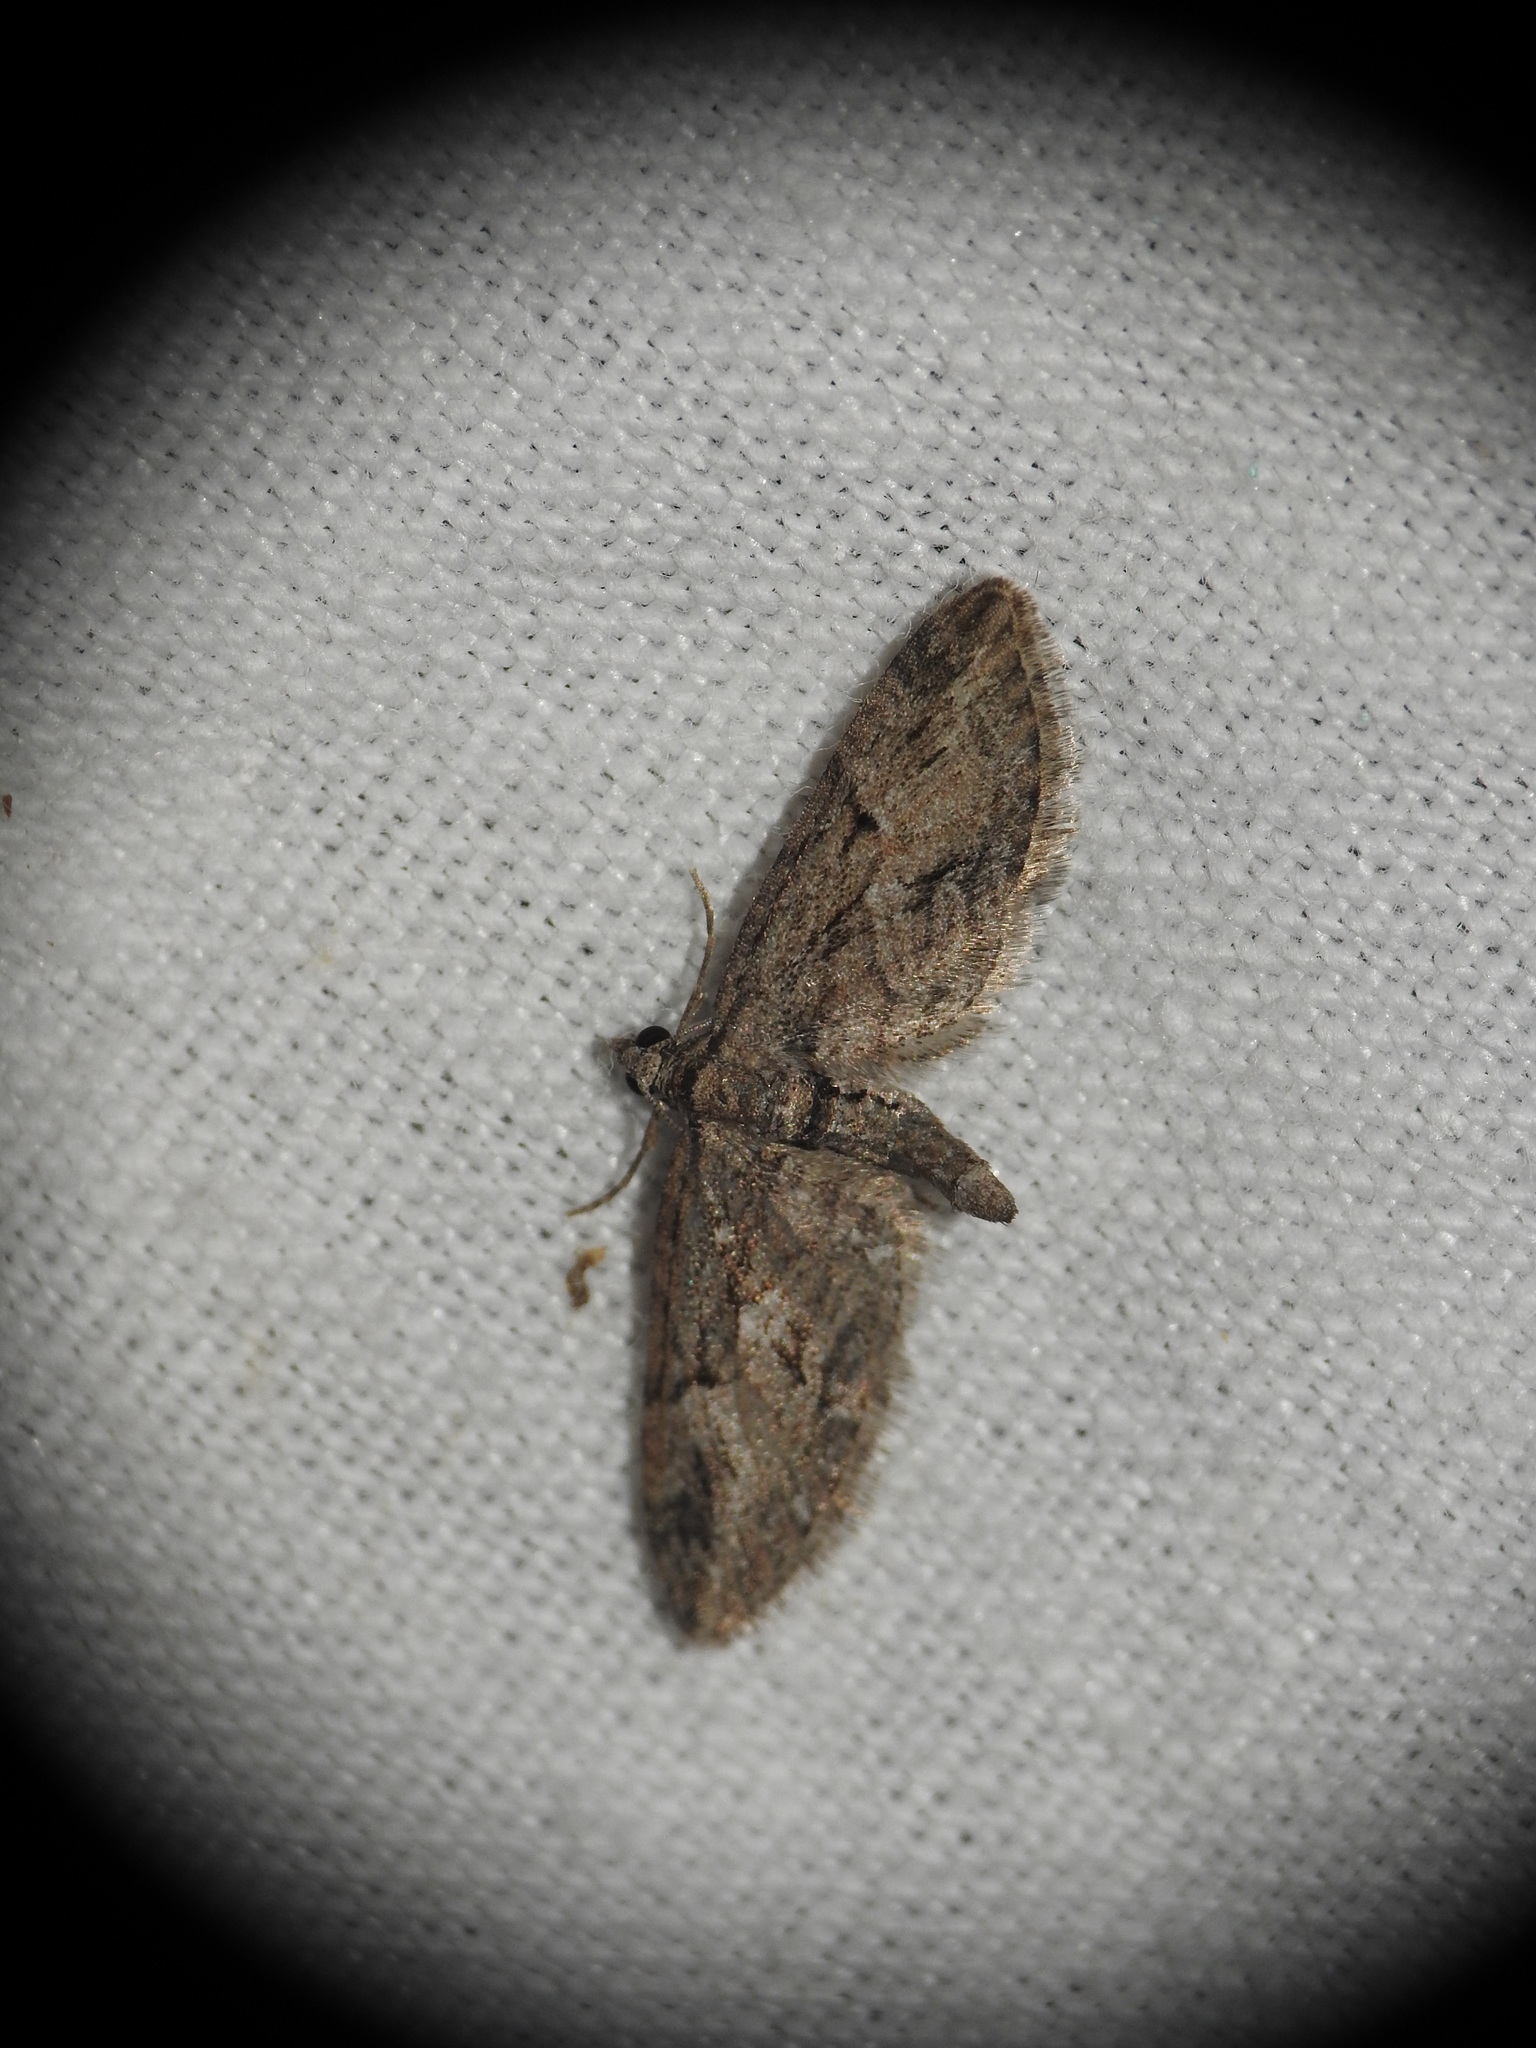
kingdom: Animalia
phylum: Arthropoda
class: Insecta
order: Lepidoptera
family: Geometridae
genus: Eupithecia
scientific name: Eupithecia oxycedrata
